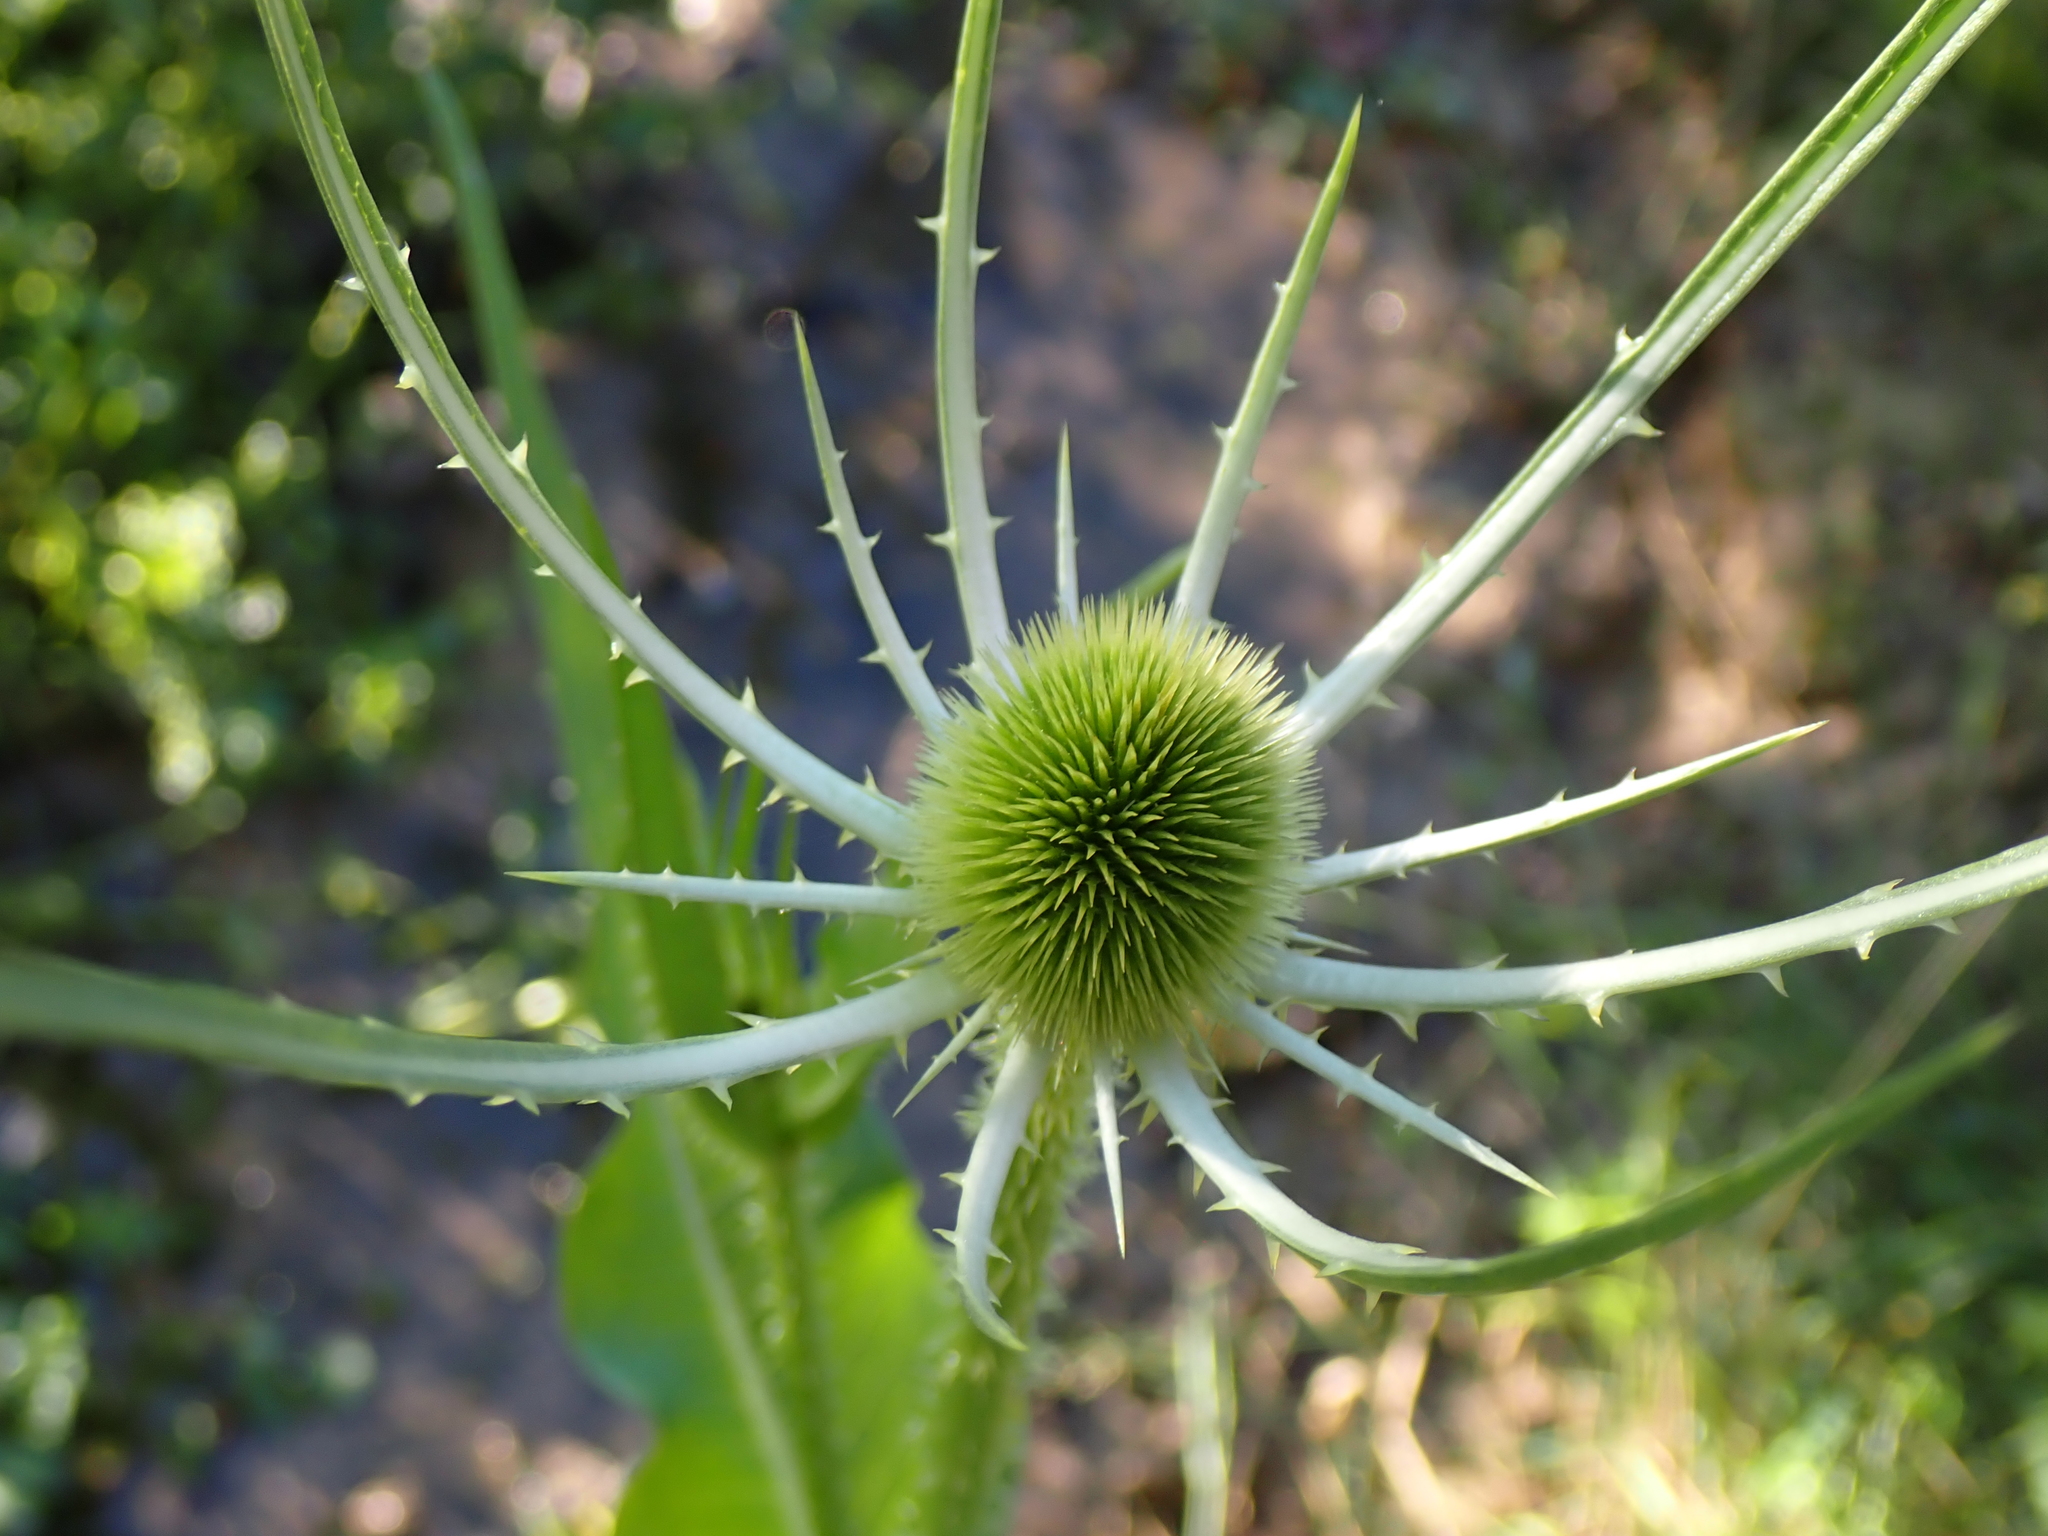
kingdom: Plantae
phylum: Tracheophyta
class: Magnoliopsida
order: Dipsacales
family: Caprifoliaceae
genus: Dipsacus
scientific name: Dipsacus fullonum
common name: Teasel
